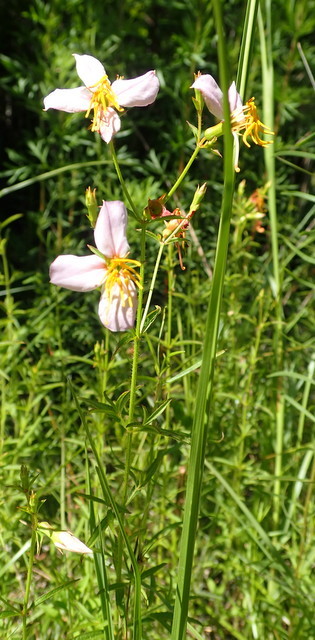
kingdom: Plantae
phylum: Tracheophyta
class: Magnoliopsida
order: Myrtales
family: Melastomataceae
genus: Rhexia
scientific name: Rhexia mariana
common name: Dull meadow-pitcher
